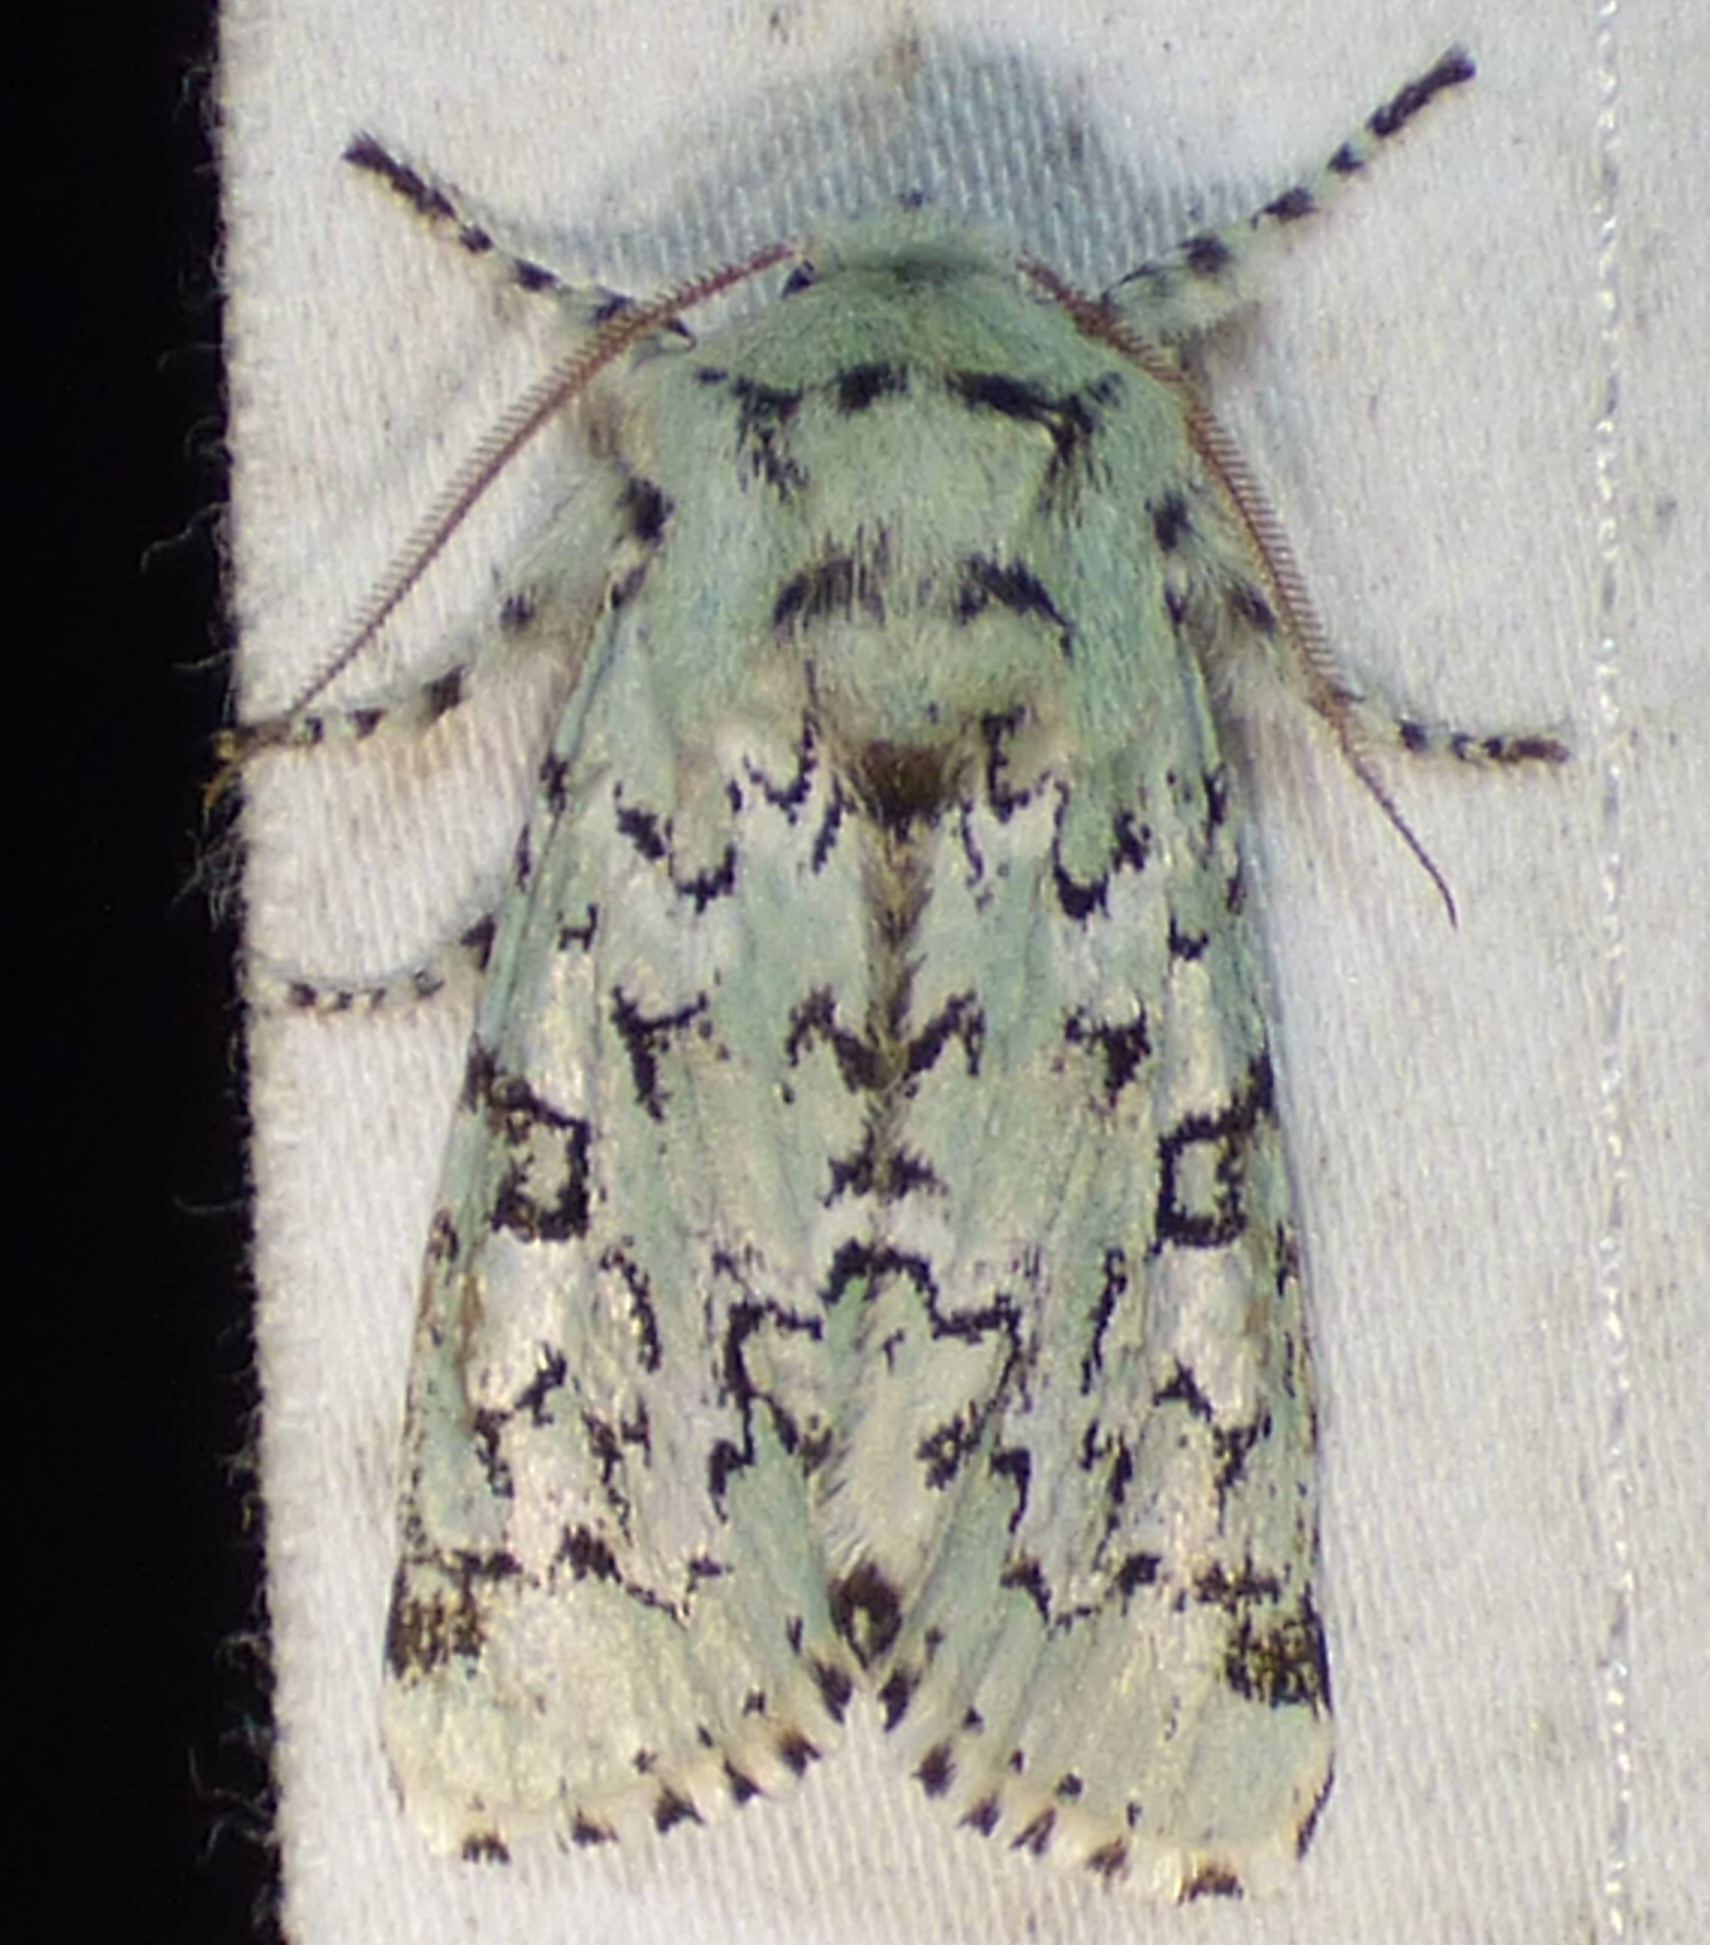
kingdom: Animalia
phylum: Arthropoda
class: Insecta
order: Lepidoptera
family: Noctuidae
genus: Feralia
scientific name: Feralia major
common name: Major sallow
